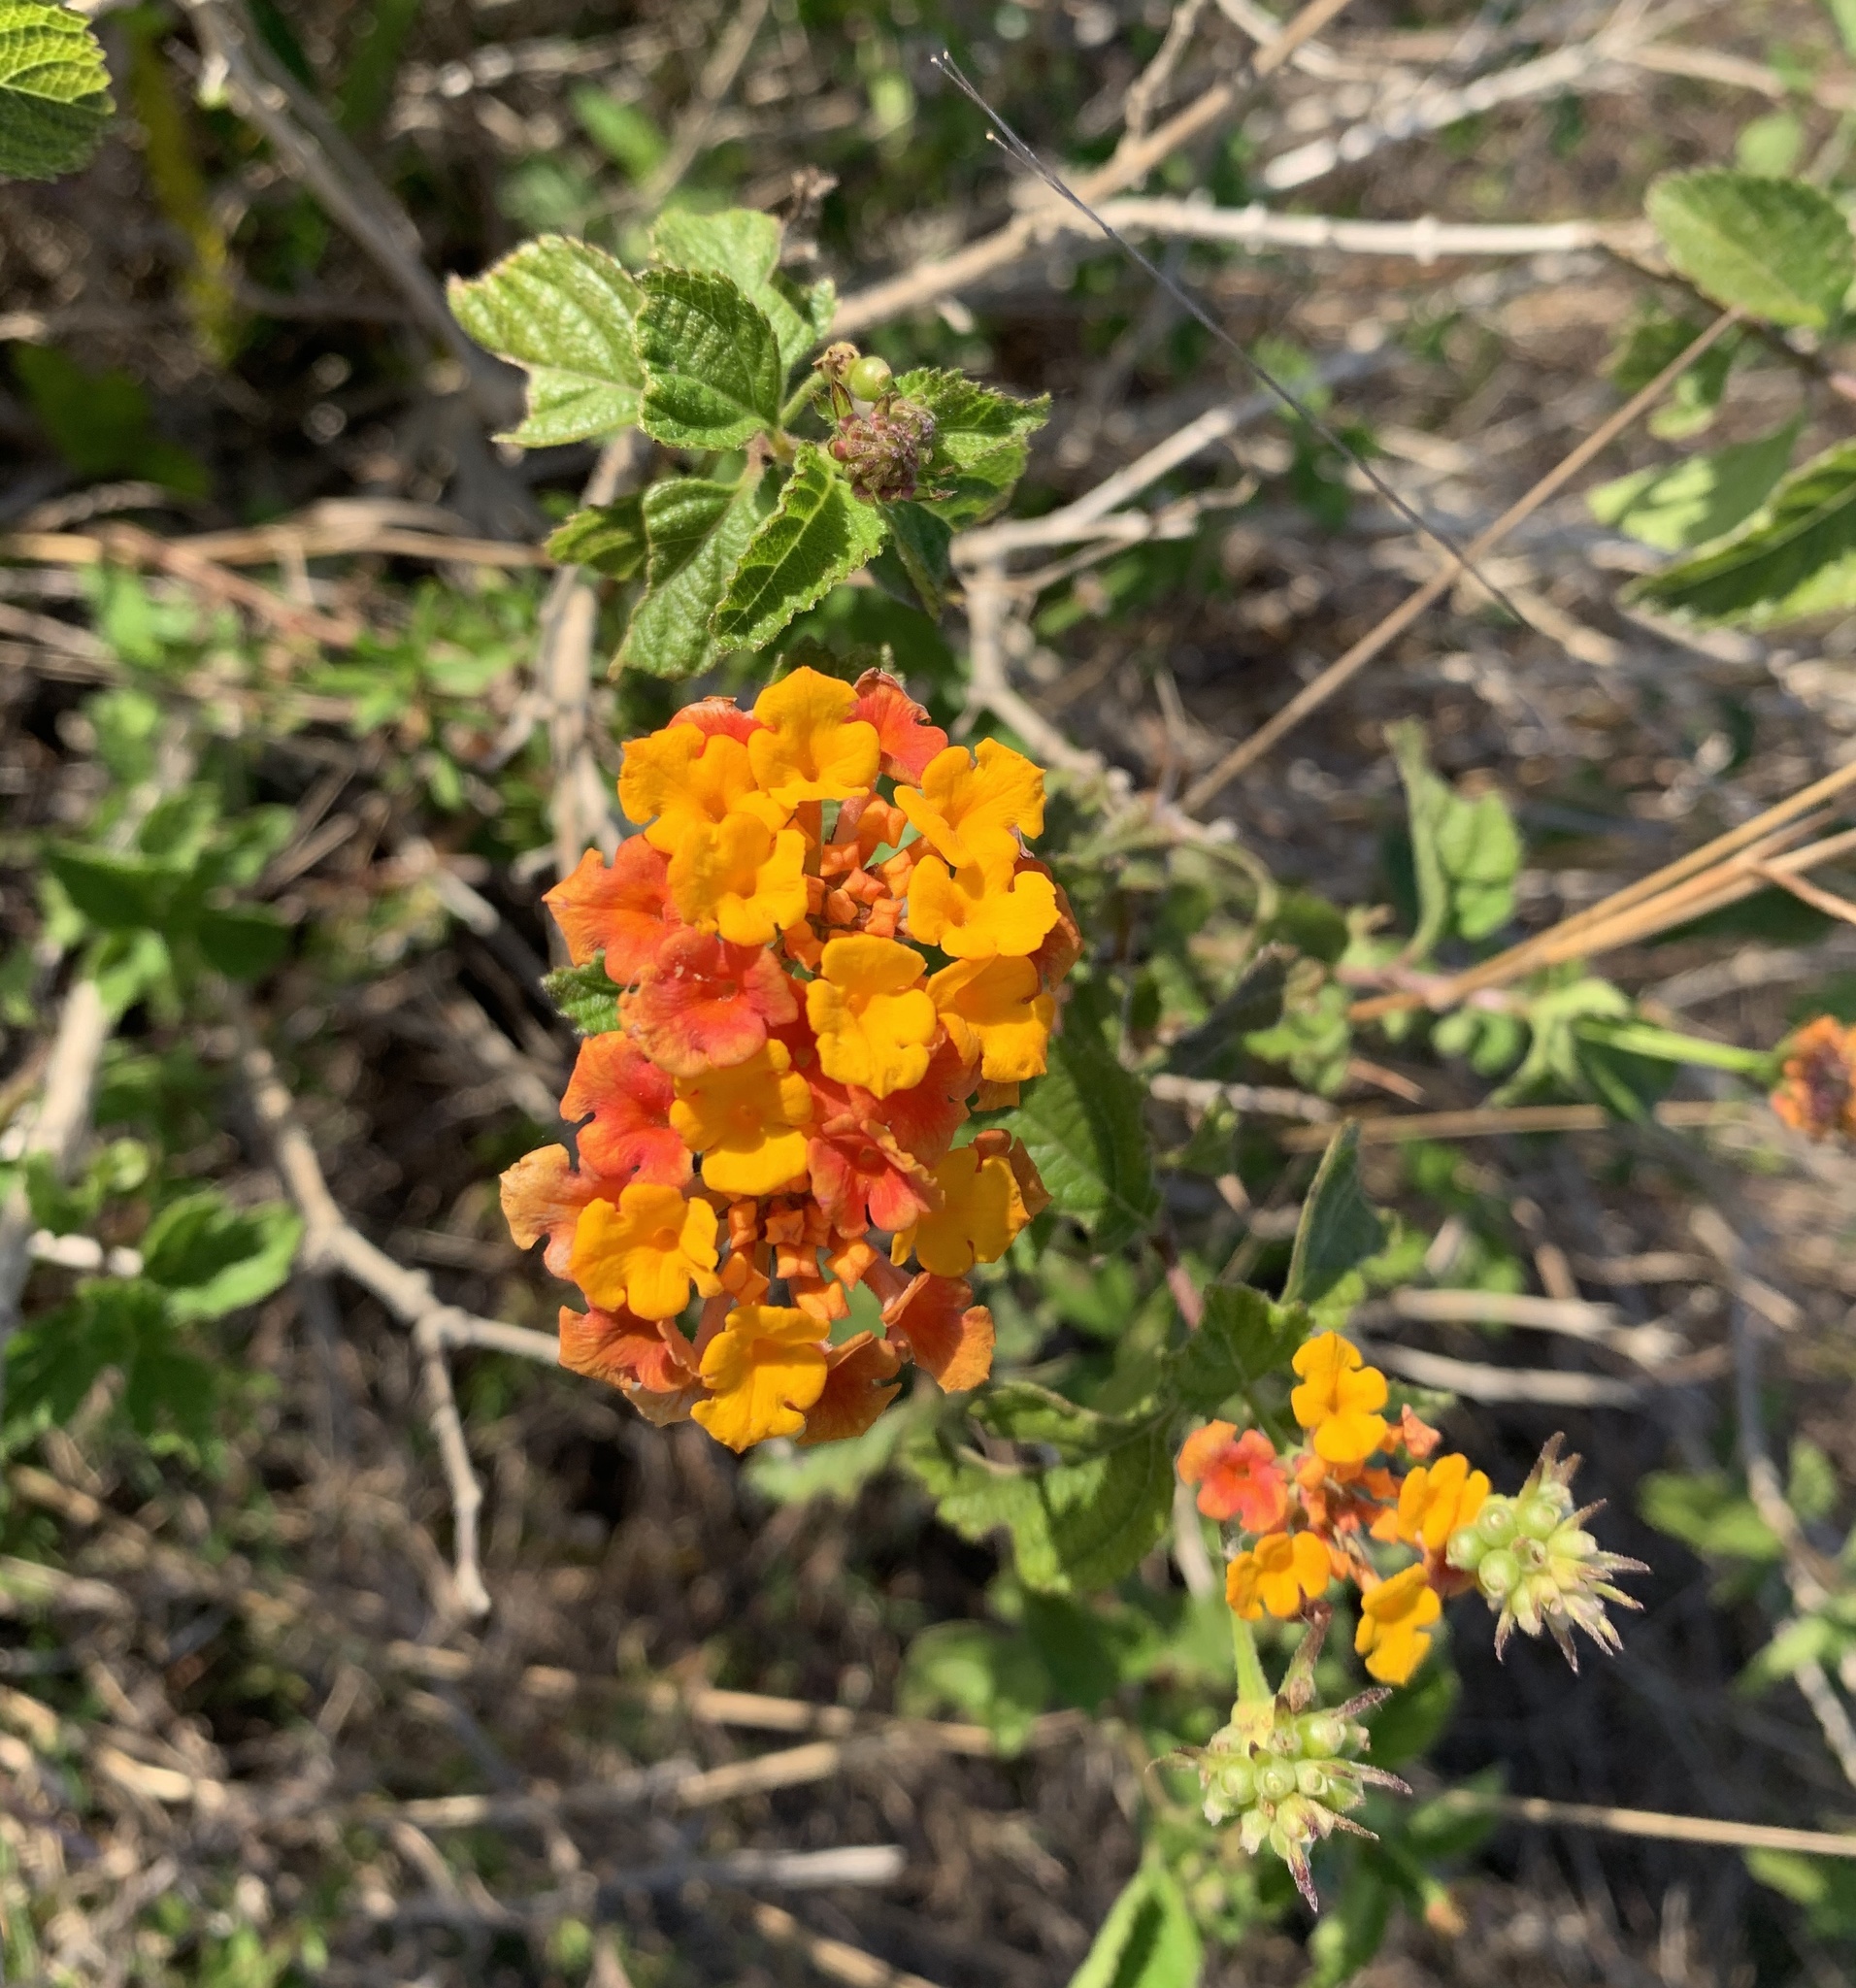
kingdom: Plantae
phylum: Tracheophyta
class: Magnoliopsida
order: Lamiales
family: Verbenaceae
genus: Lantana
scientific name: Lantana camara
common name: Lantana
